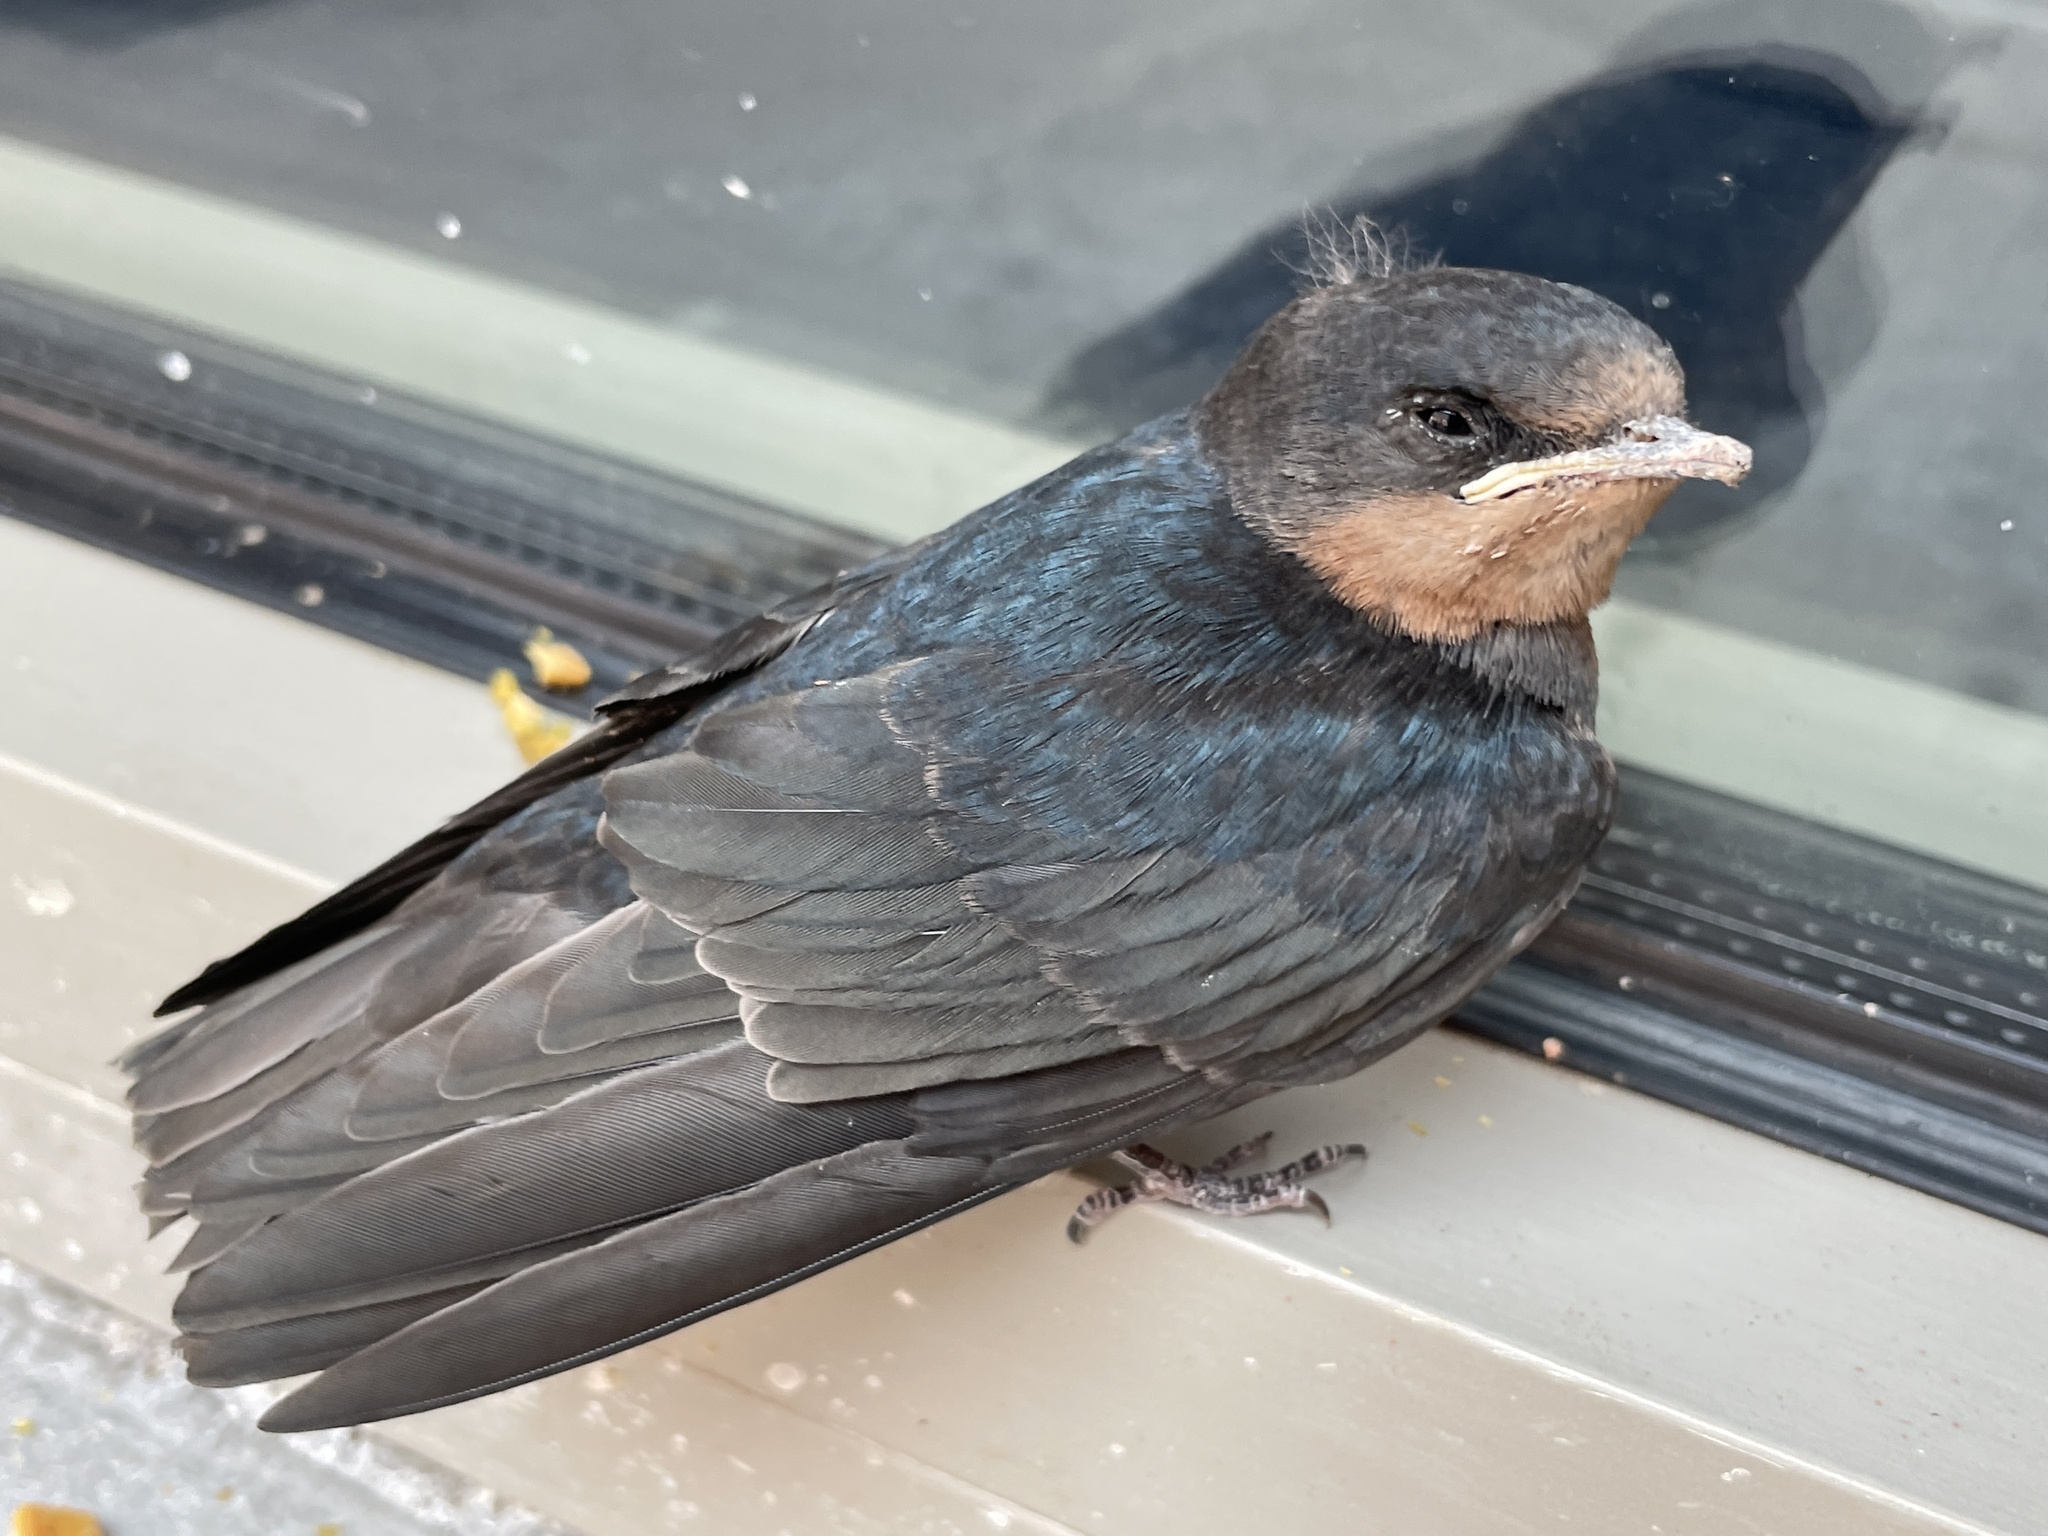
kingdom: Animalia
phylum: Chordata
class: Aves
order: Passeriformes
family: Hirundinidae
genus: Hirundo
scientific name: Hirundo rustica
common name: Barn swallow
